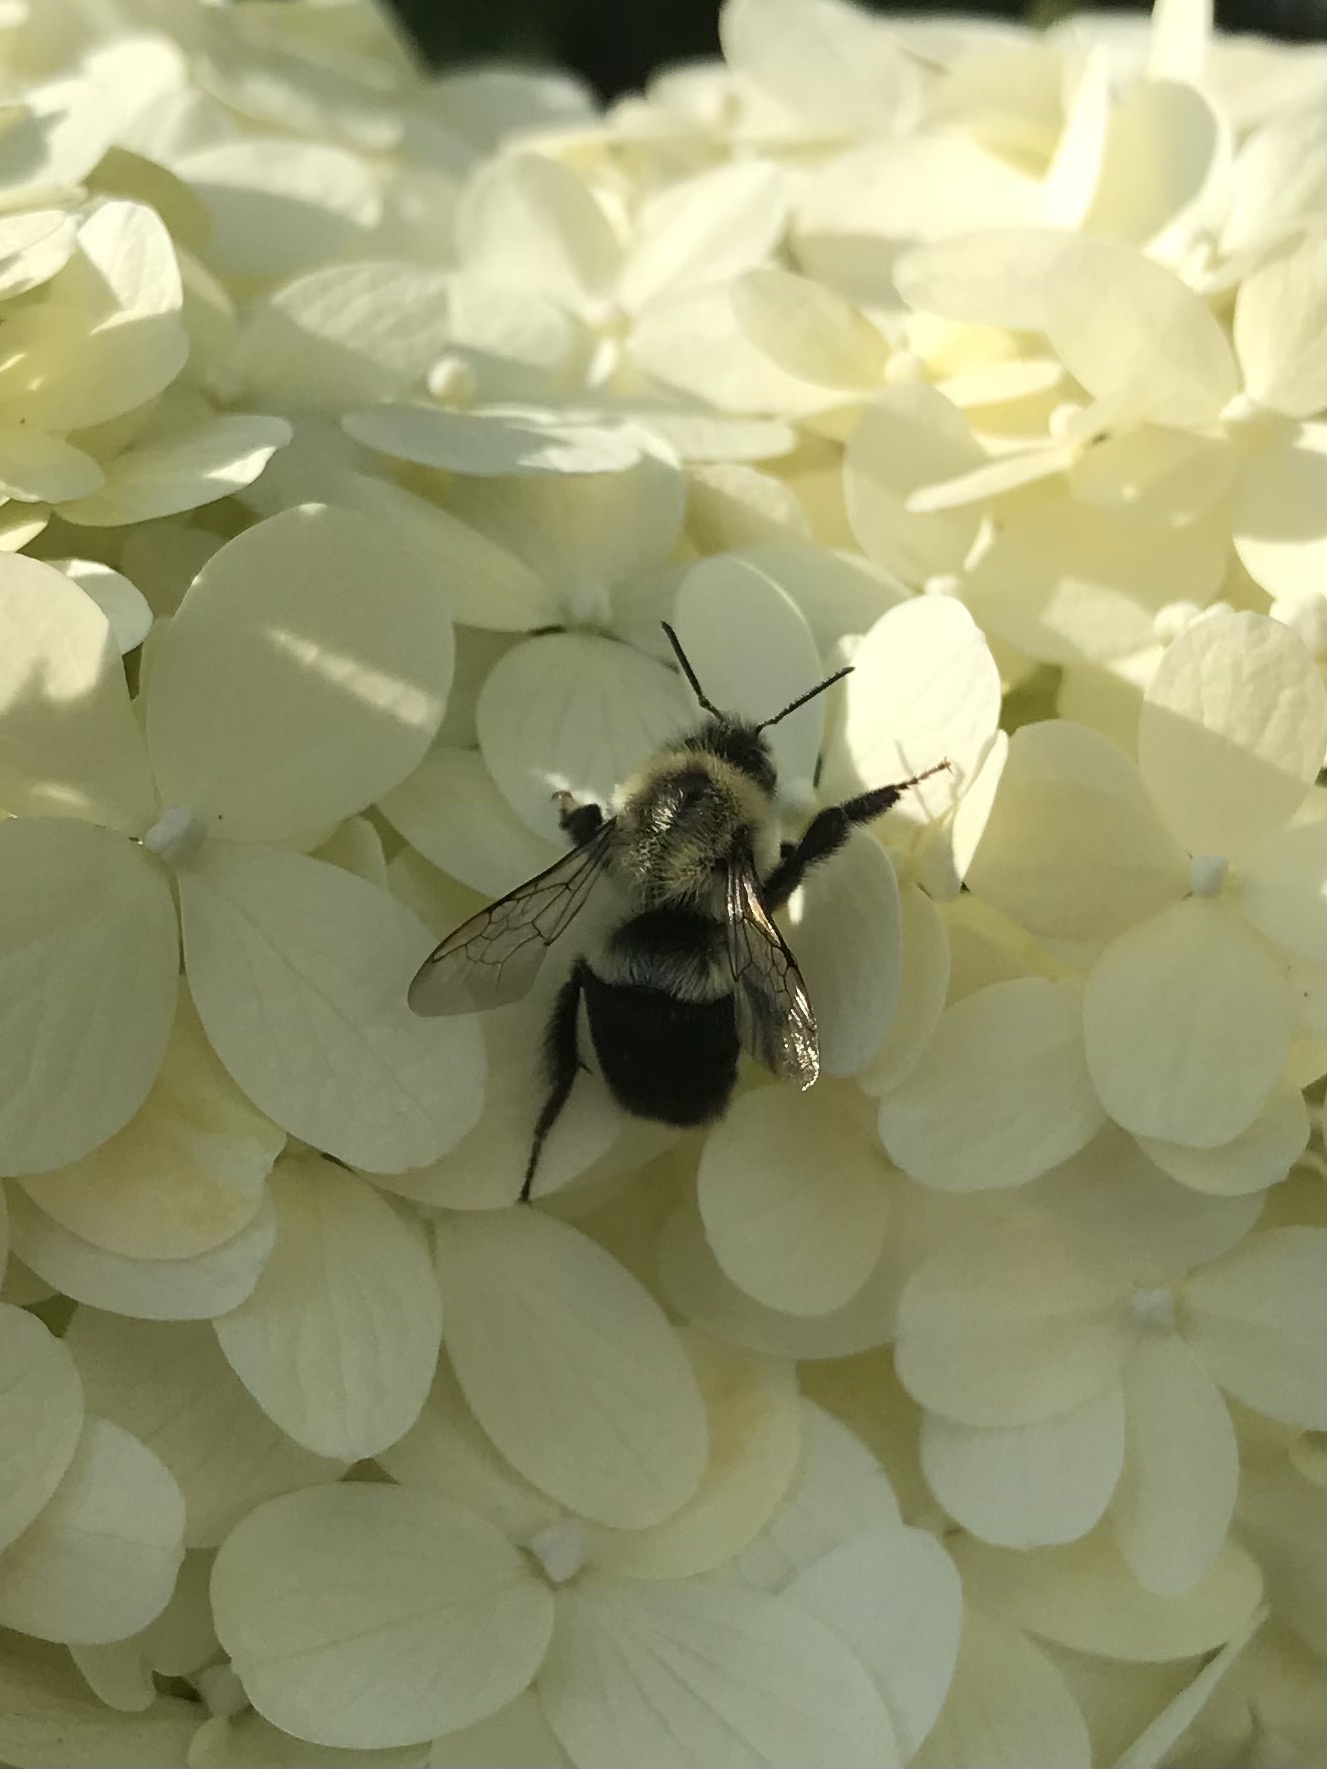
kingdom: Animalia
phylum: Arthropoda
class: Insecta
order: Hymenoptera
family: Apidae
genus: Bombus
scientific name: Bombus impatiens
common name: Common eastern bumble bee
